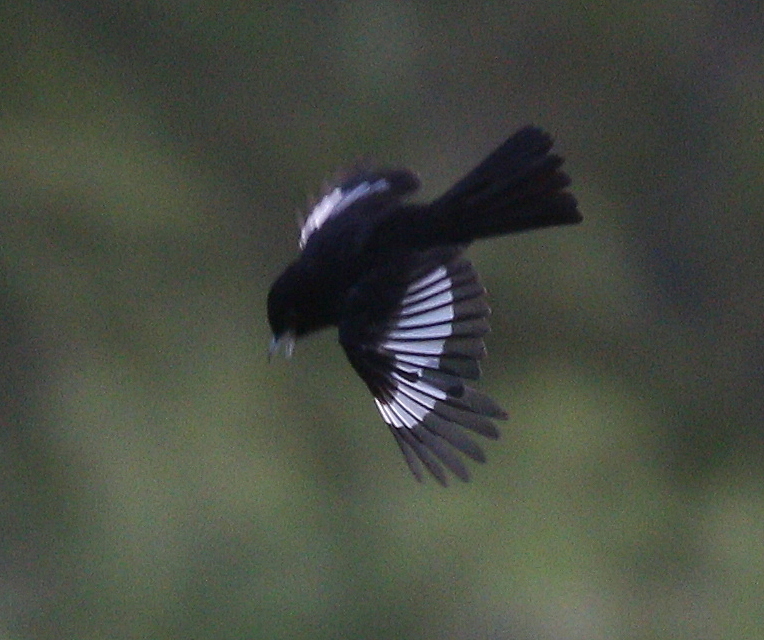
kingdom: Animalia
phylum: Chordata
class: Aves
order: Passeriformes
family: Tyrannidae
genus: Knipolegus
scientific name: Knipolegus aterrimus
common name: White-winged black tyrant
